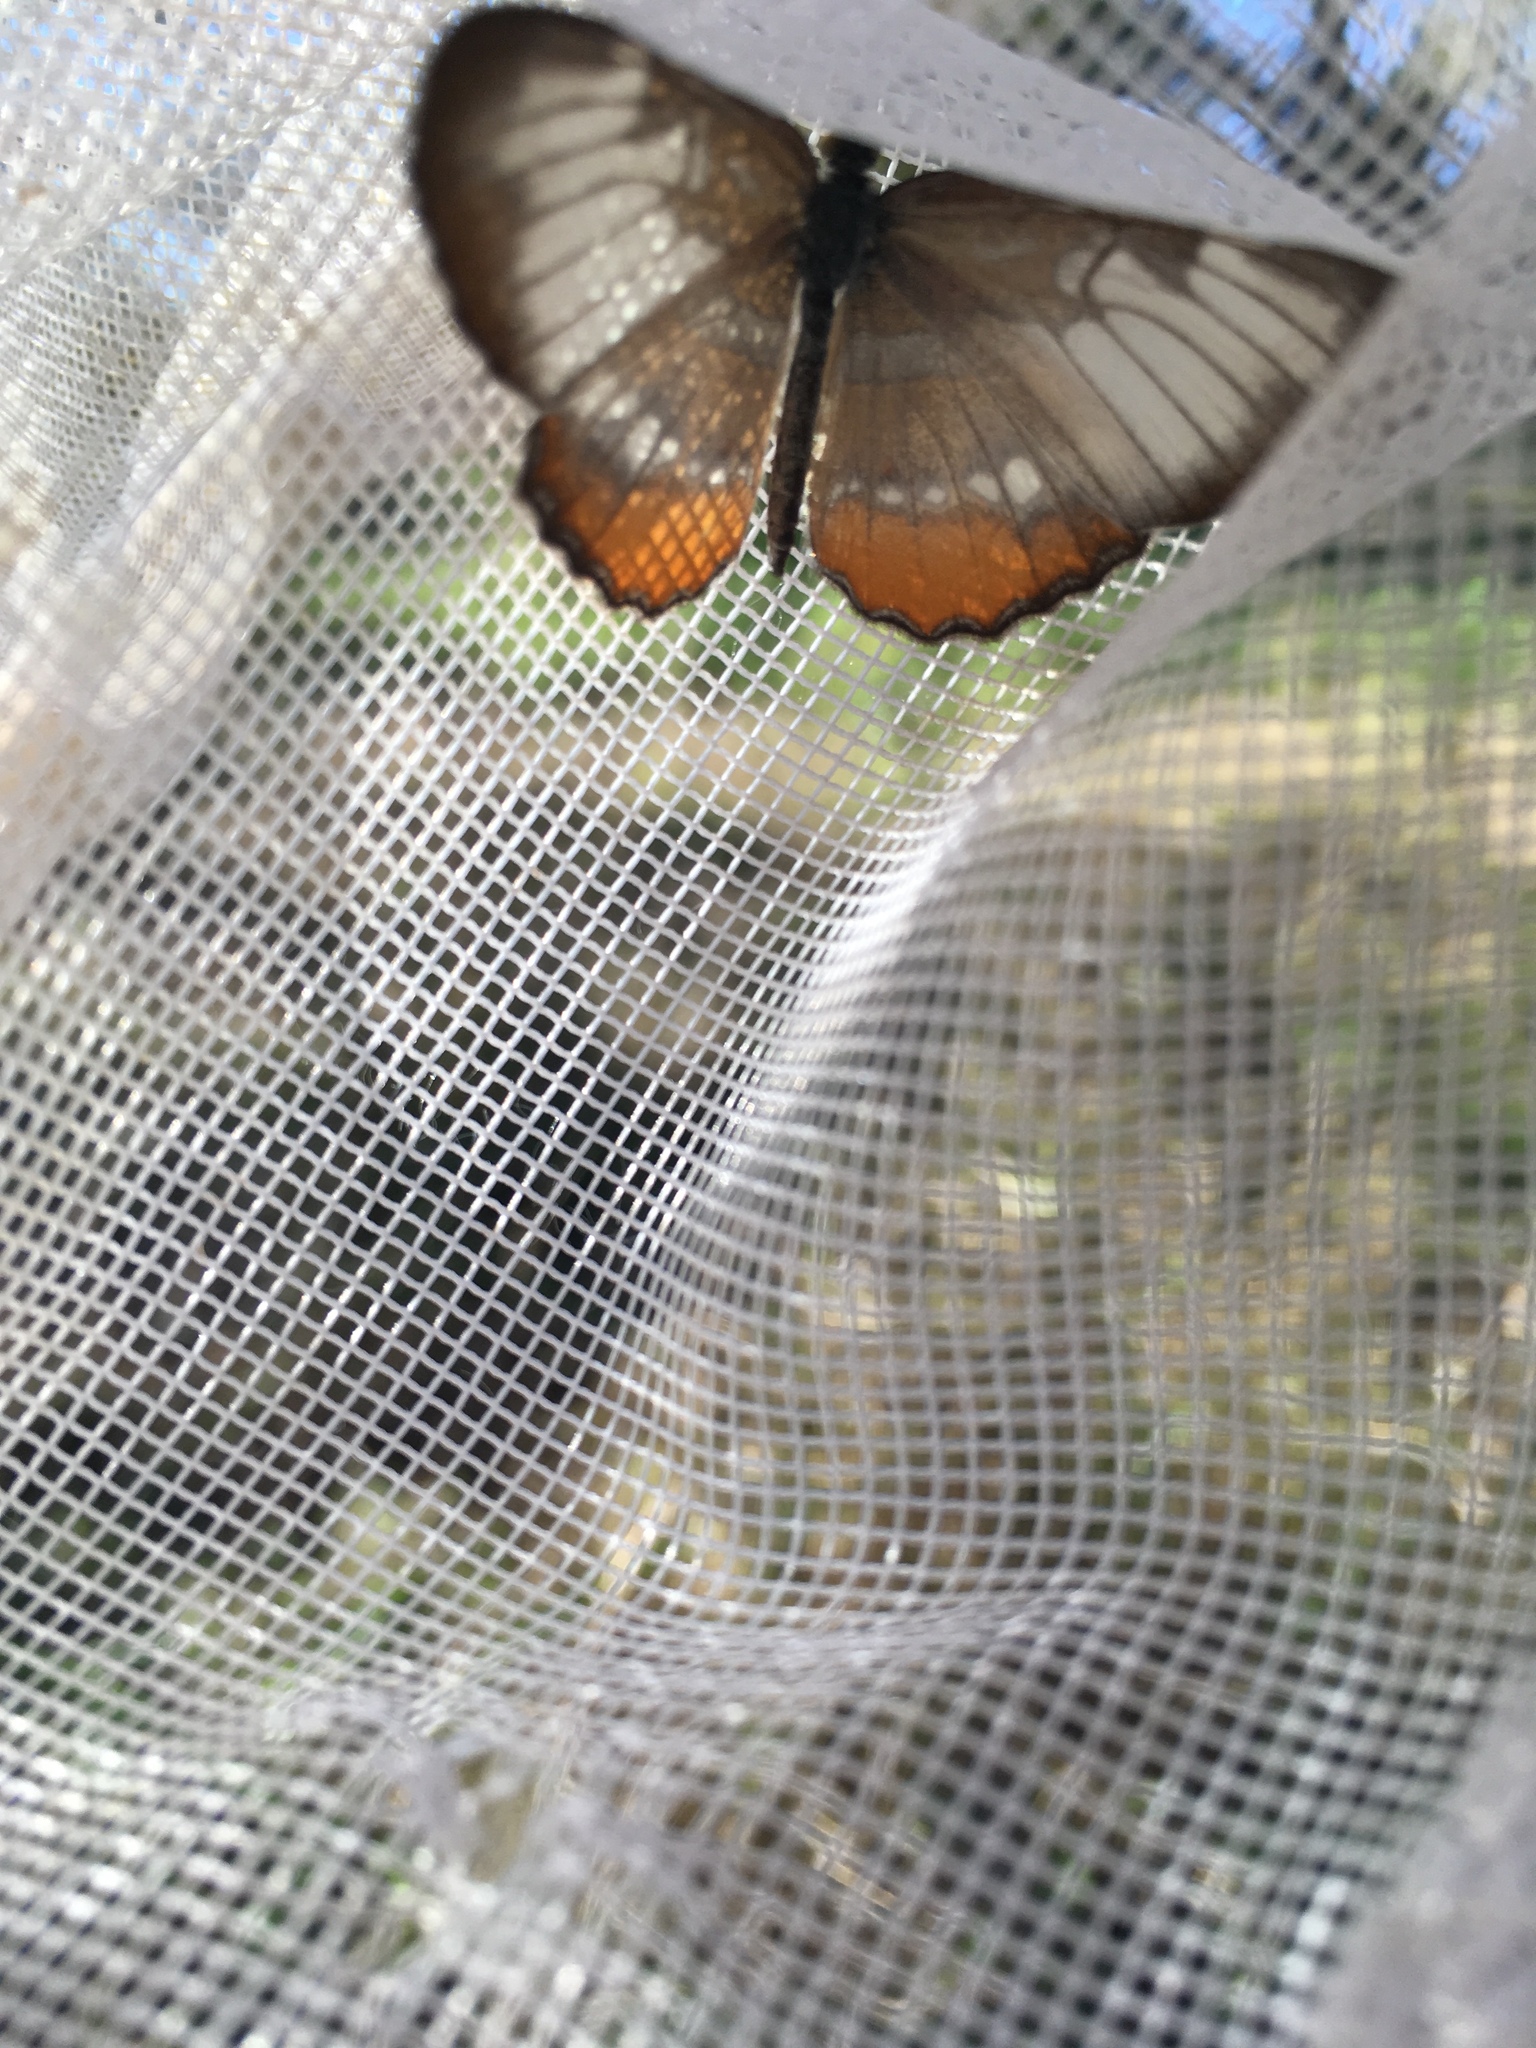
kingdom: Animalia
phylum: Arthropoda
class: Insecta
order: Lepidoptera
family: Nymphalidae
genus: Mestra
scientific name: Mestra amymone
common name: Common mestra
